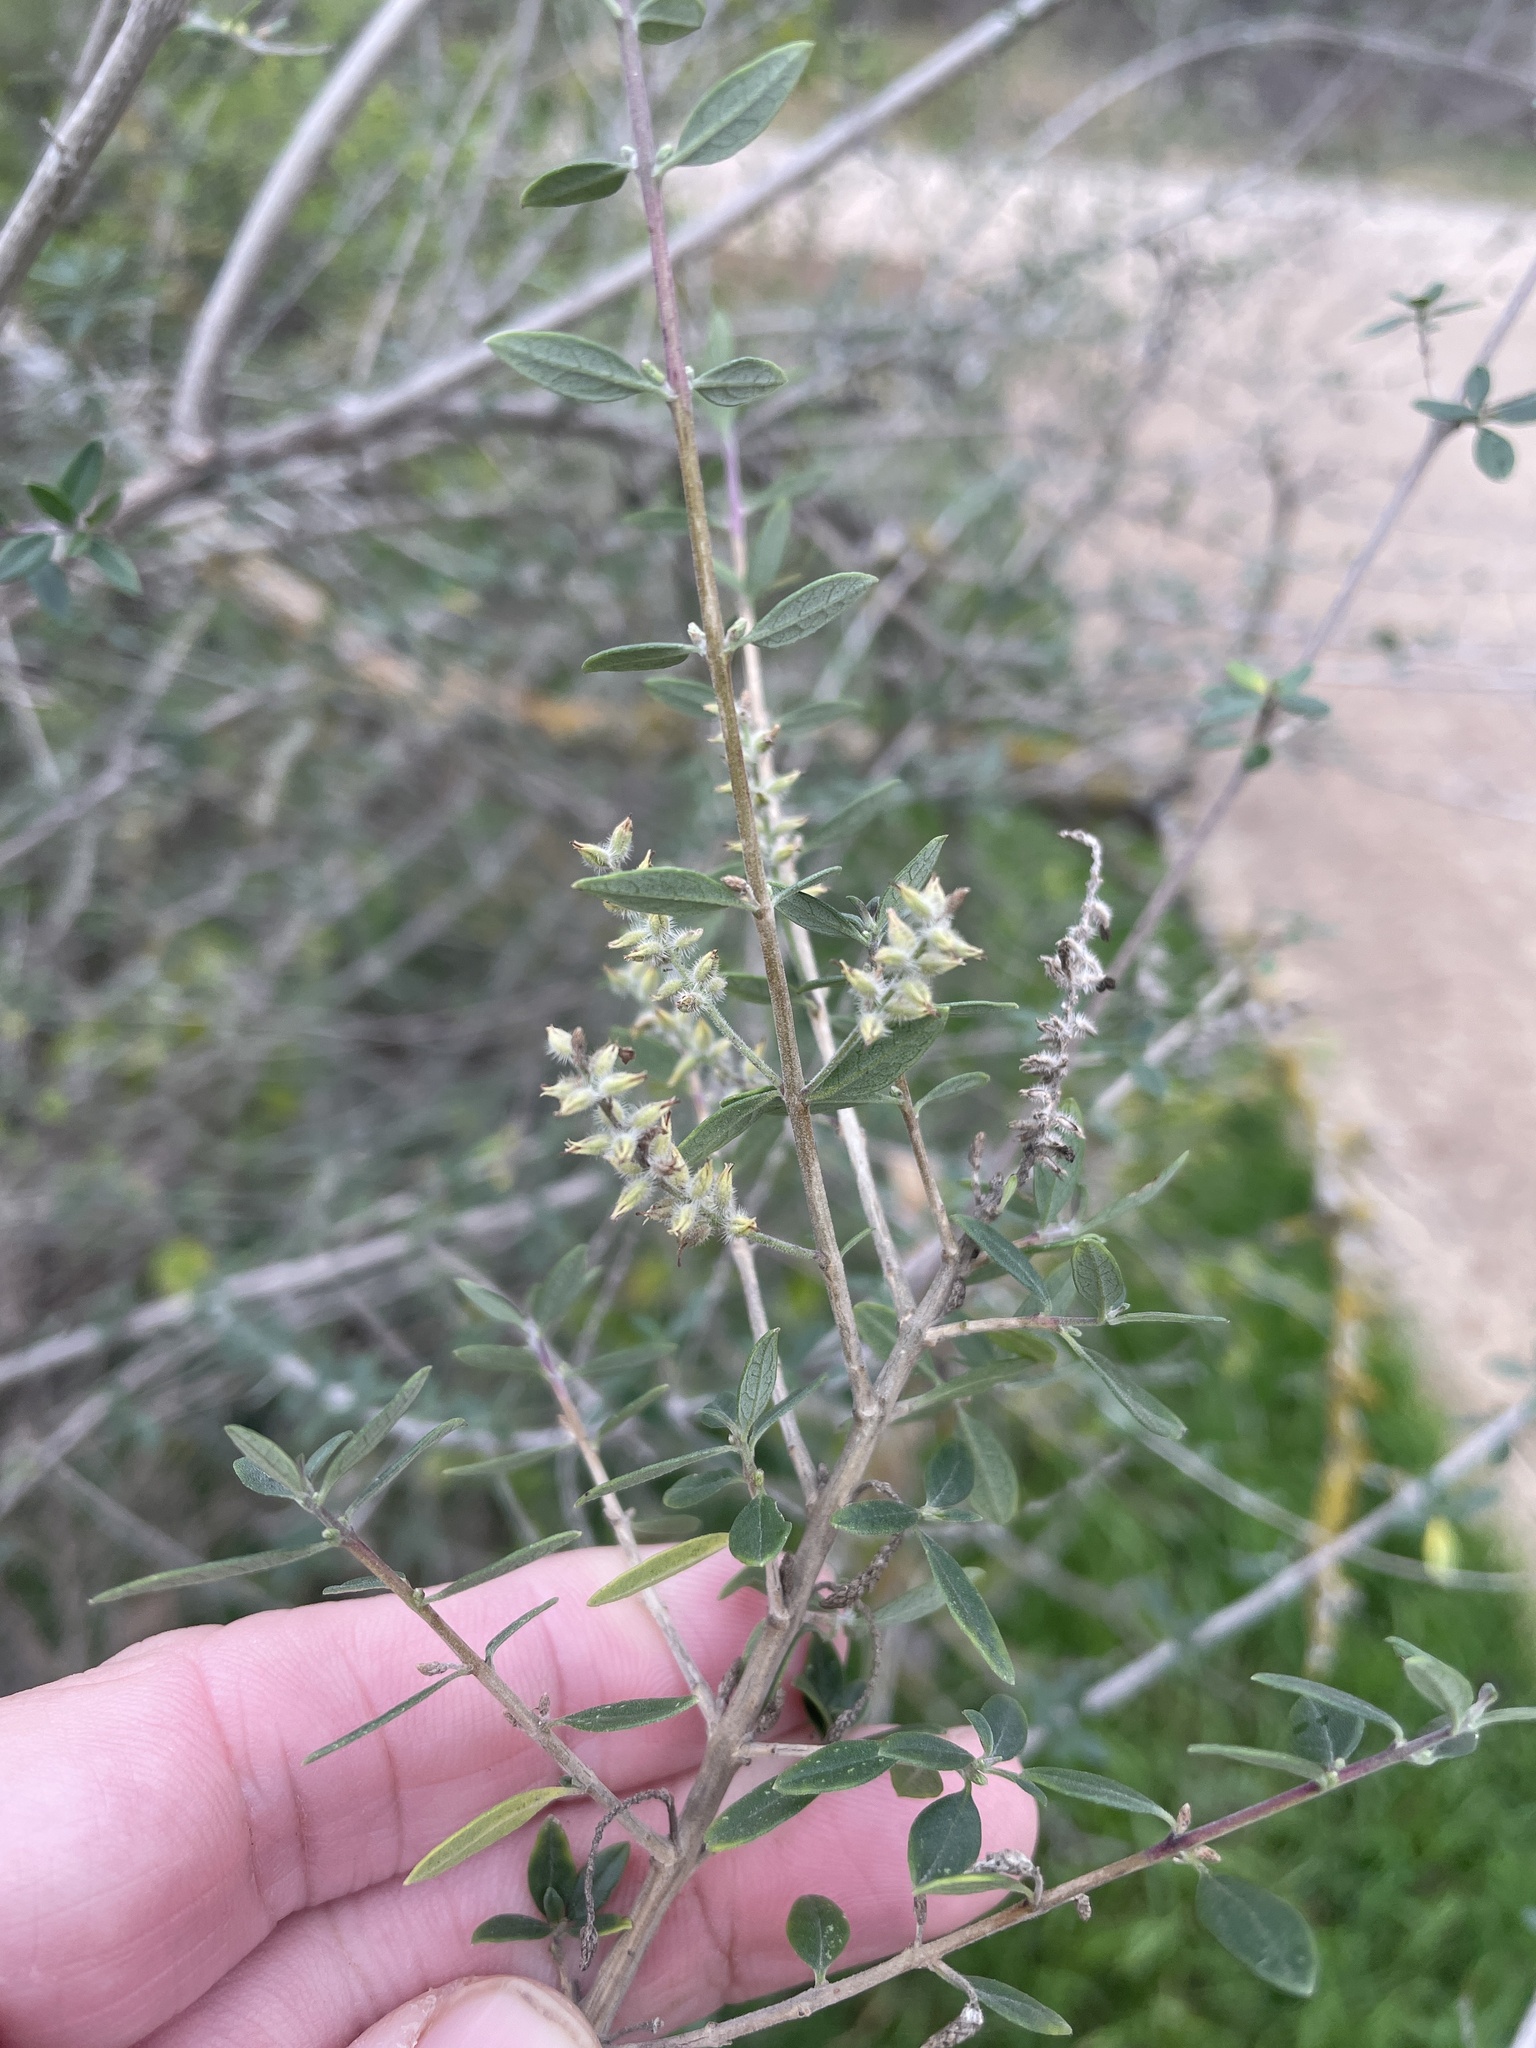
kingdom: Plantae
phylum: Tracheophyta
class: Magnoliopsida
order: Lamiales
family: Verbenaceae
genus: Aloysia
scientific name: Aloysia gratissima
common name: Common bee-brush
